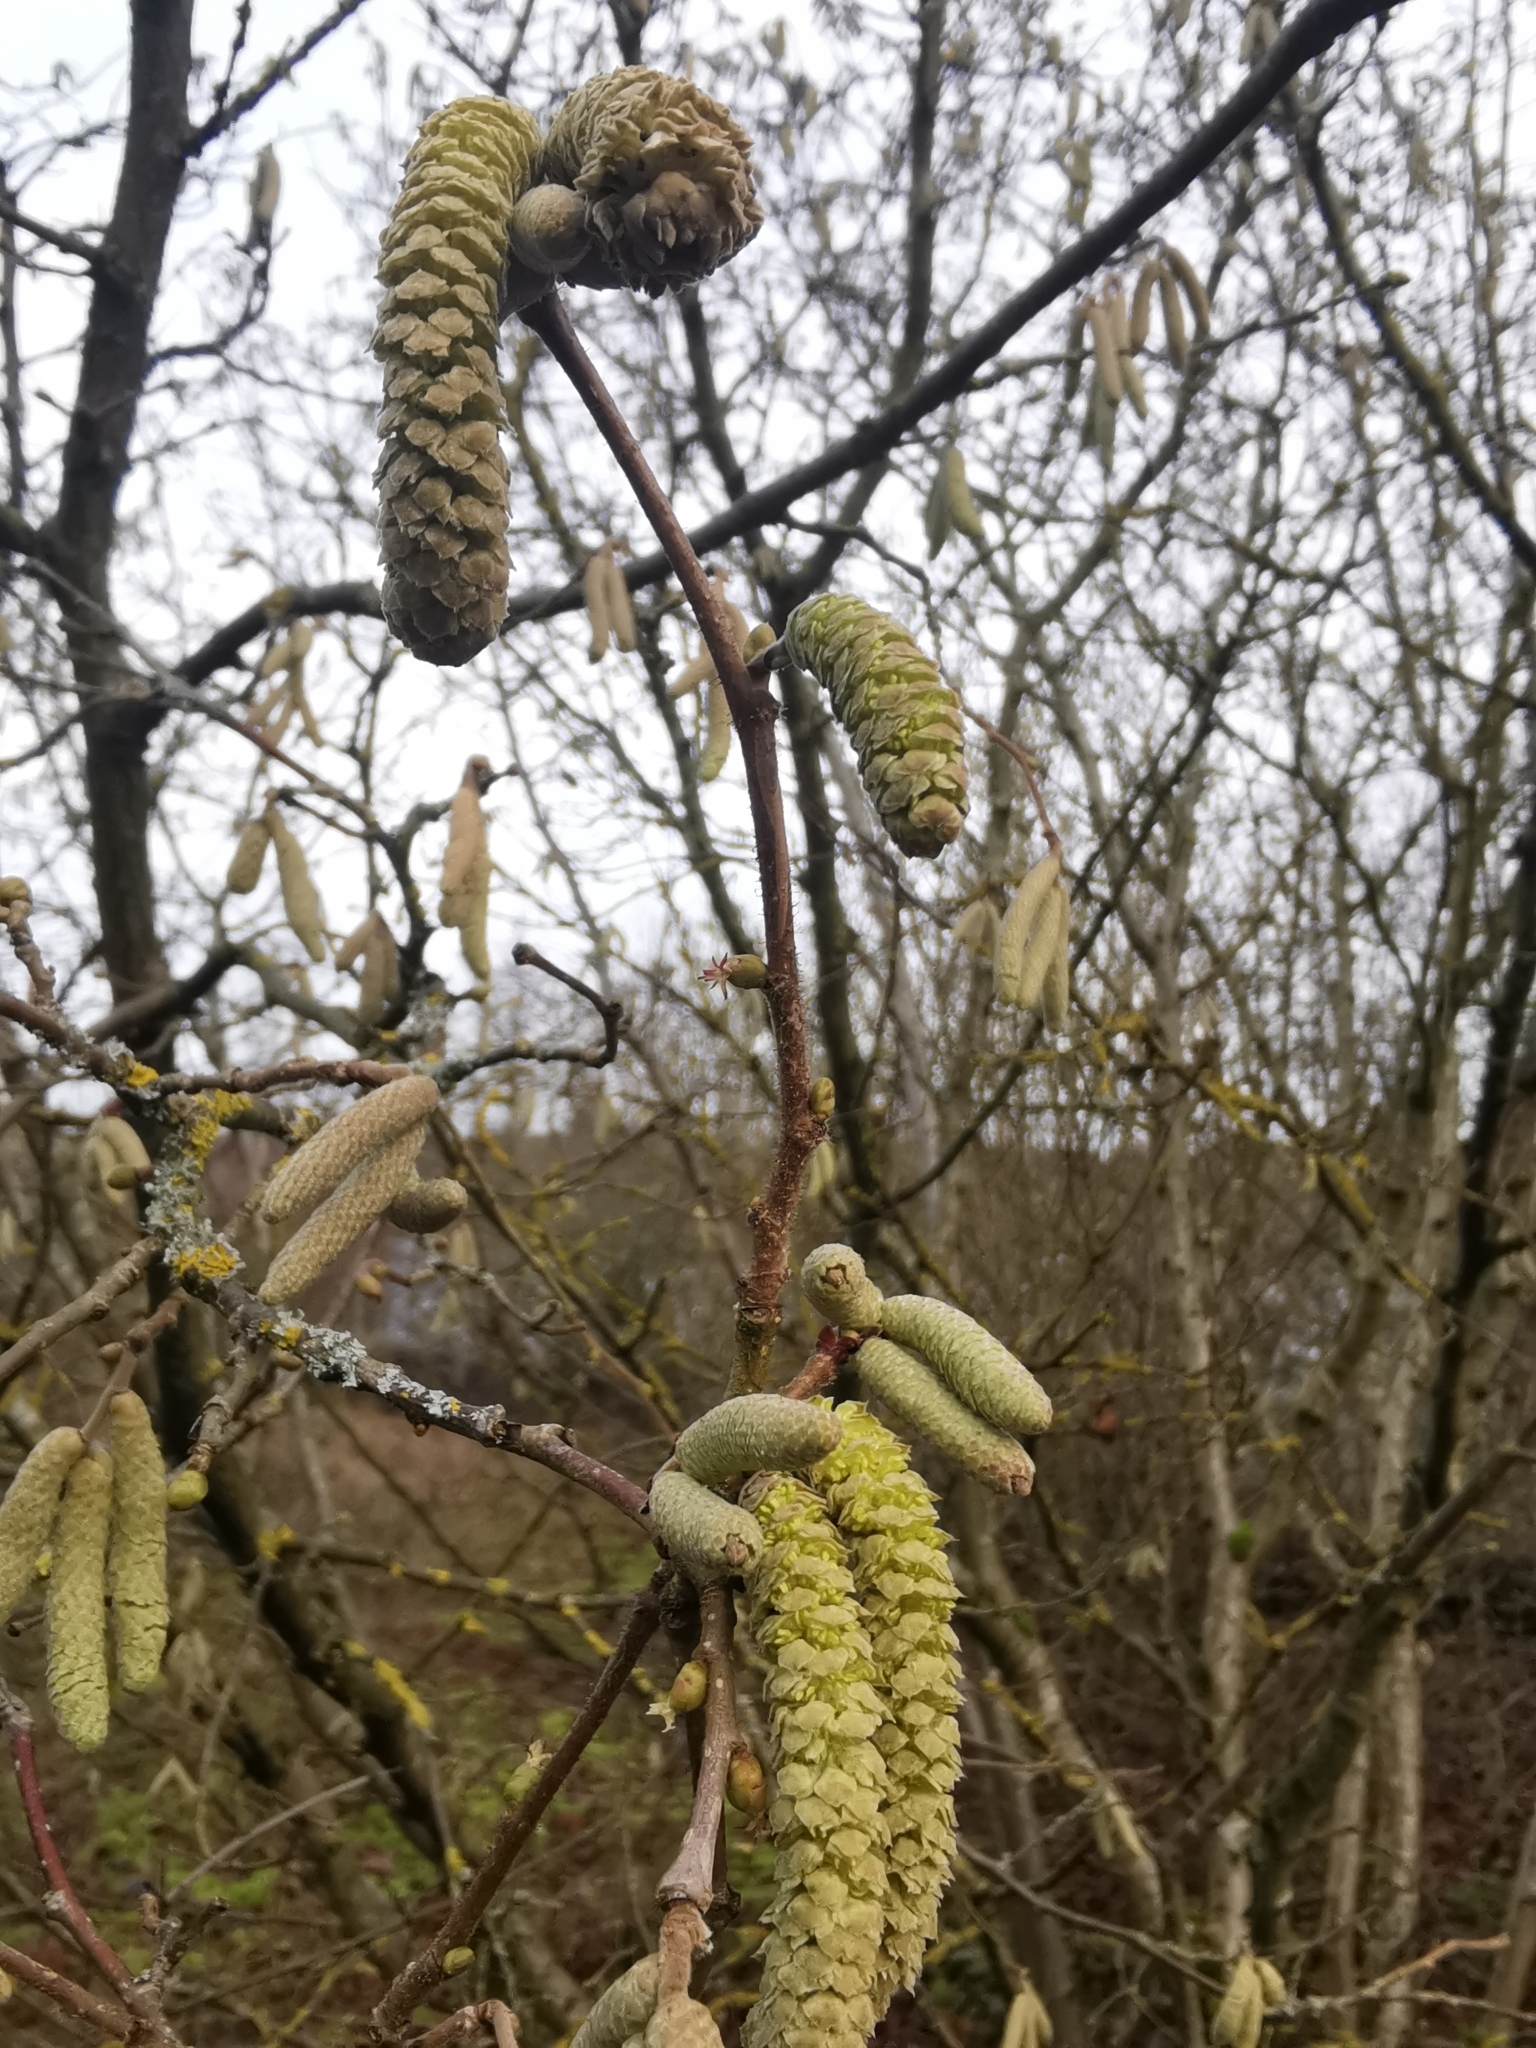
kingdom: Plantae
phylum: Tracheophyta
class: Magnoliopsida
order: Fagales
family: Betulaceae
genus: Corylus
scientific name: Corylus avellana
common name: European hazel
